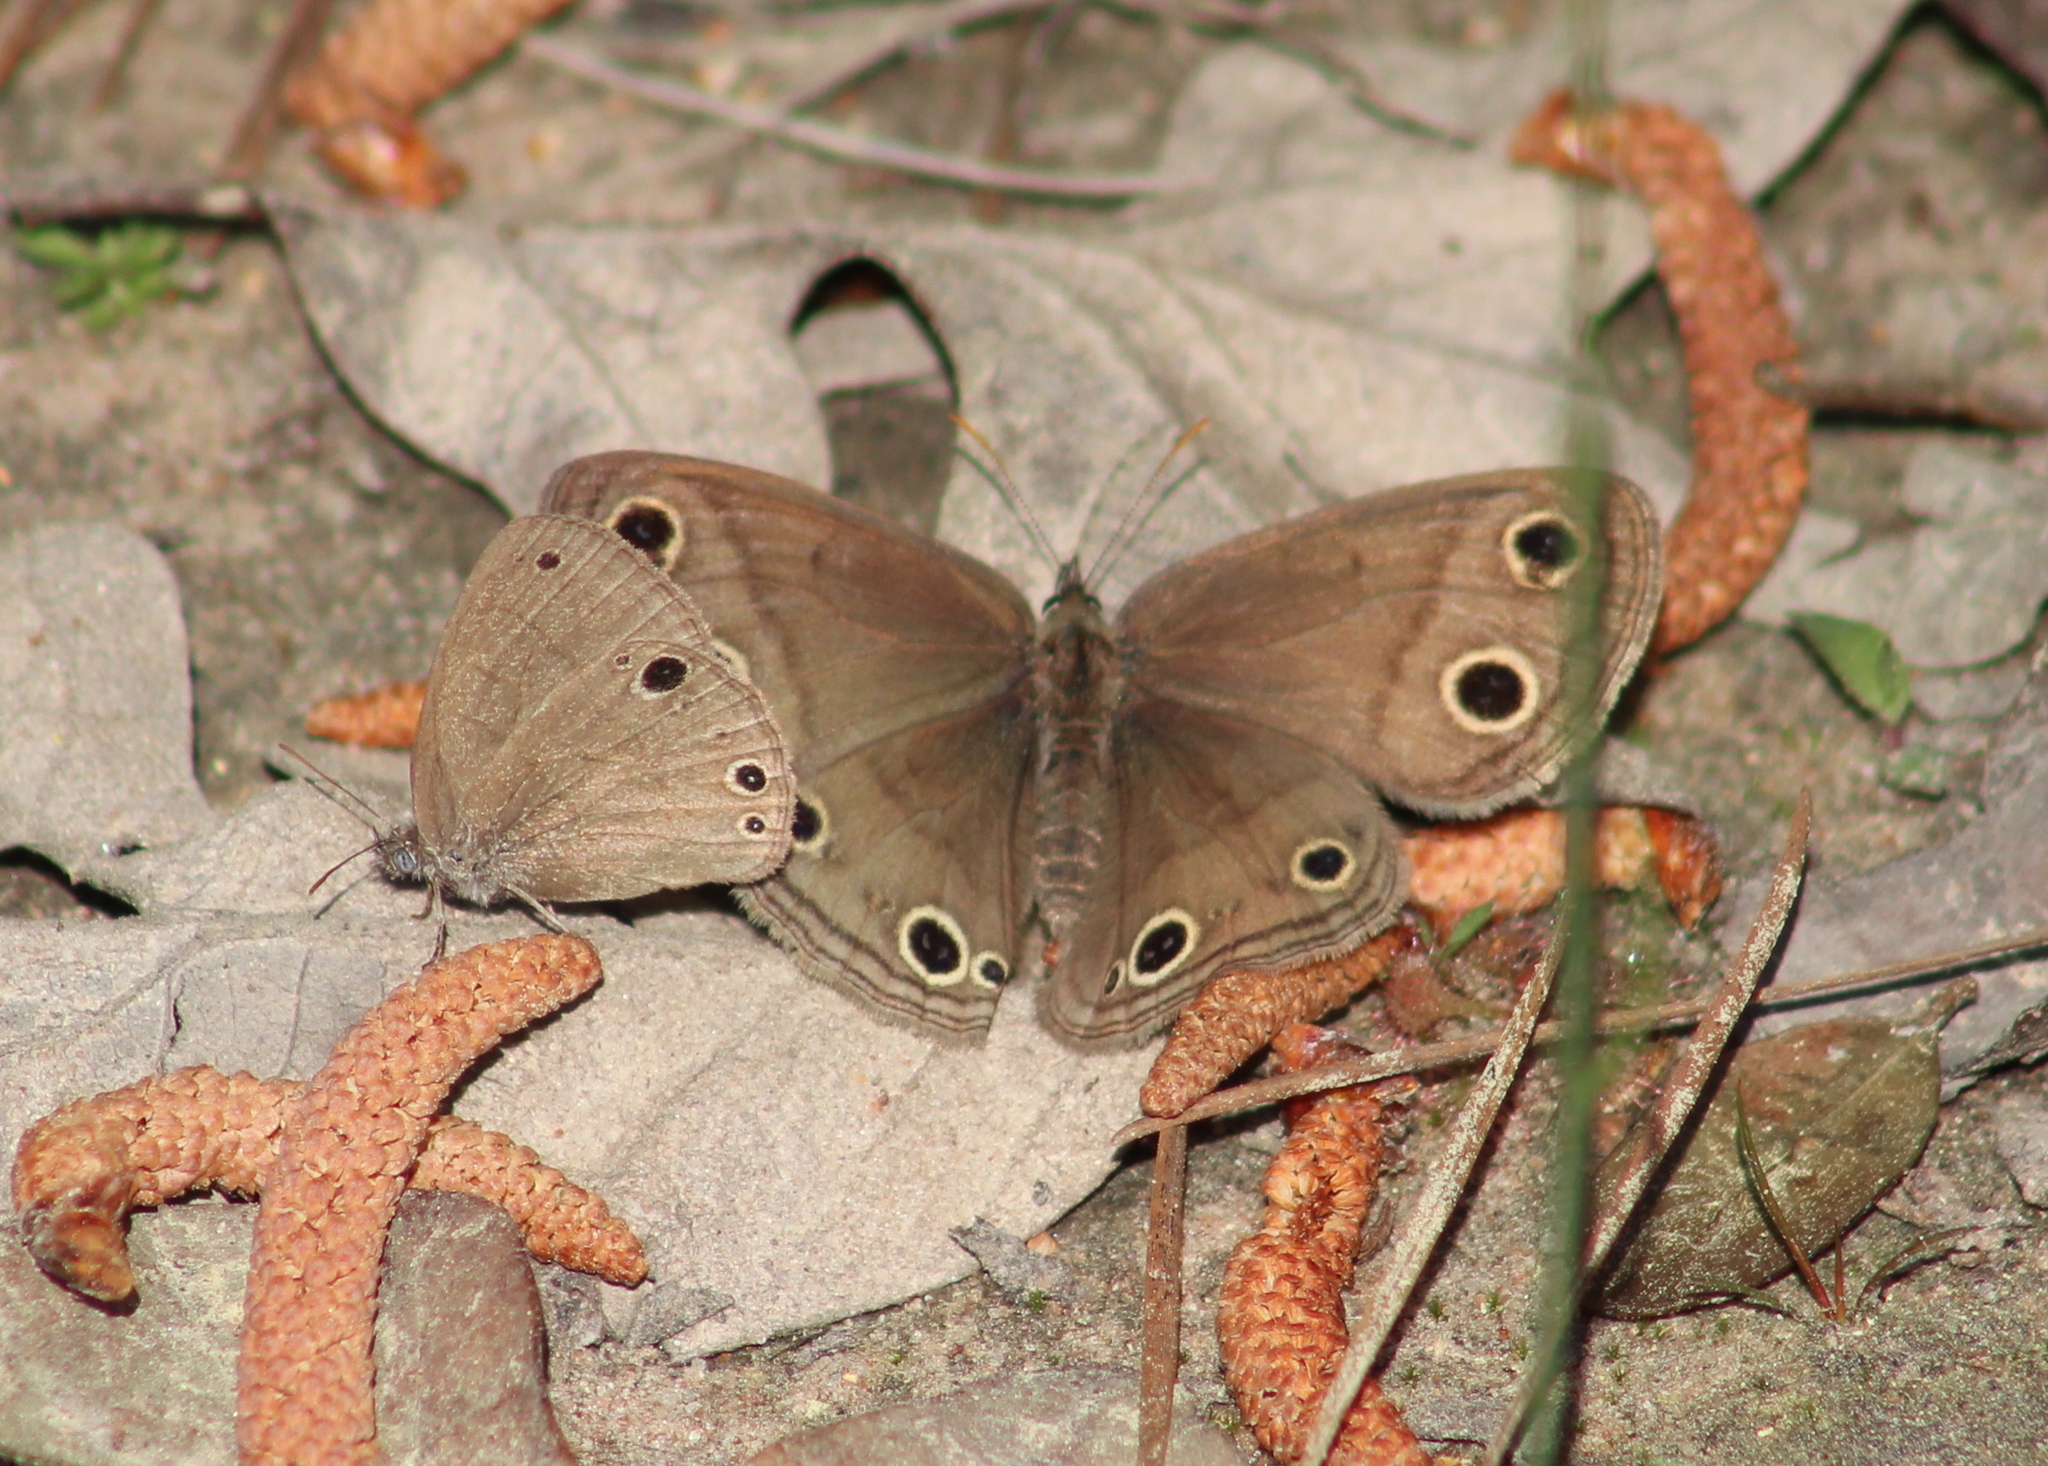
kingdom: Animalia
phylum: Arthropoda
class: Insecta
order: Lepidoptera
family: Nymphalidae
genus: Euptychia
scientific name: Euptychia cymela
